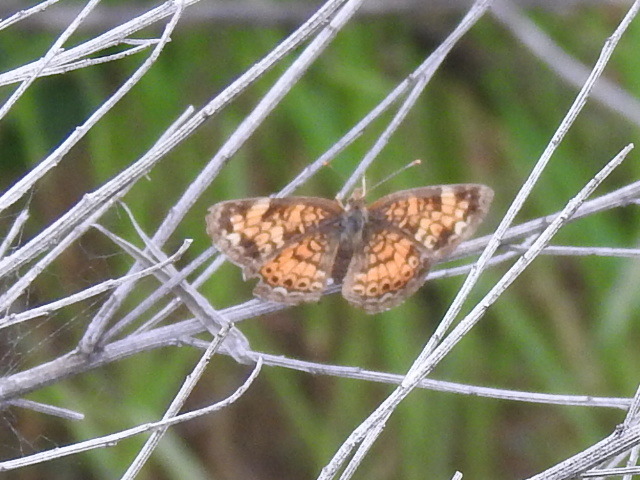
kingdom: Animalia
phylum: Arthropoda
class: Insecta
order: Lepidoptera
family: Nymphalidae
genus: Phyciodes
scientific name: Phyciodes tharos
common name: Pearl crescent
